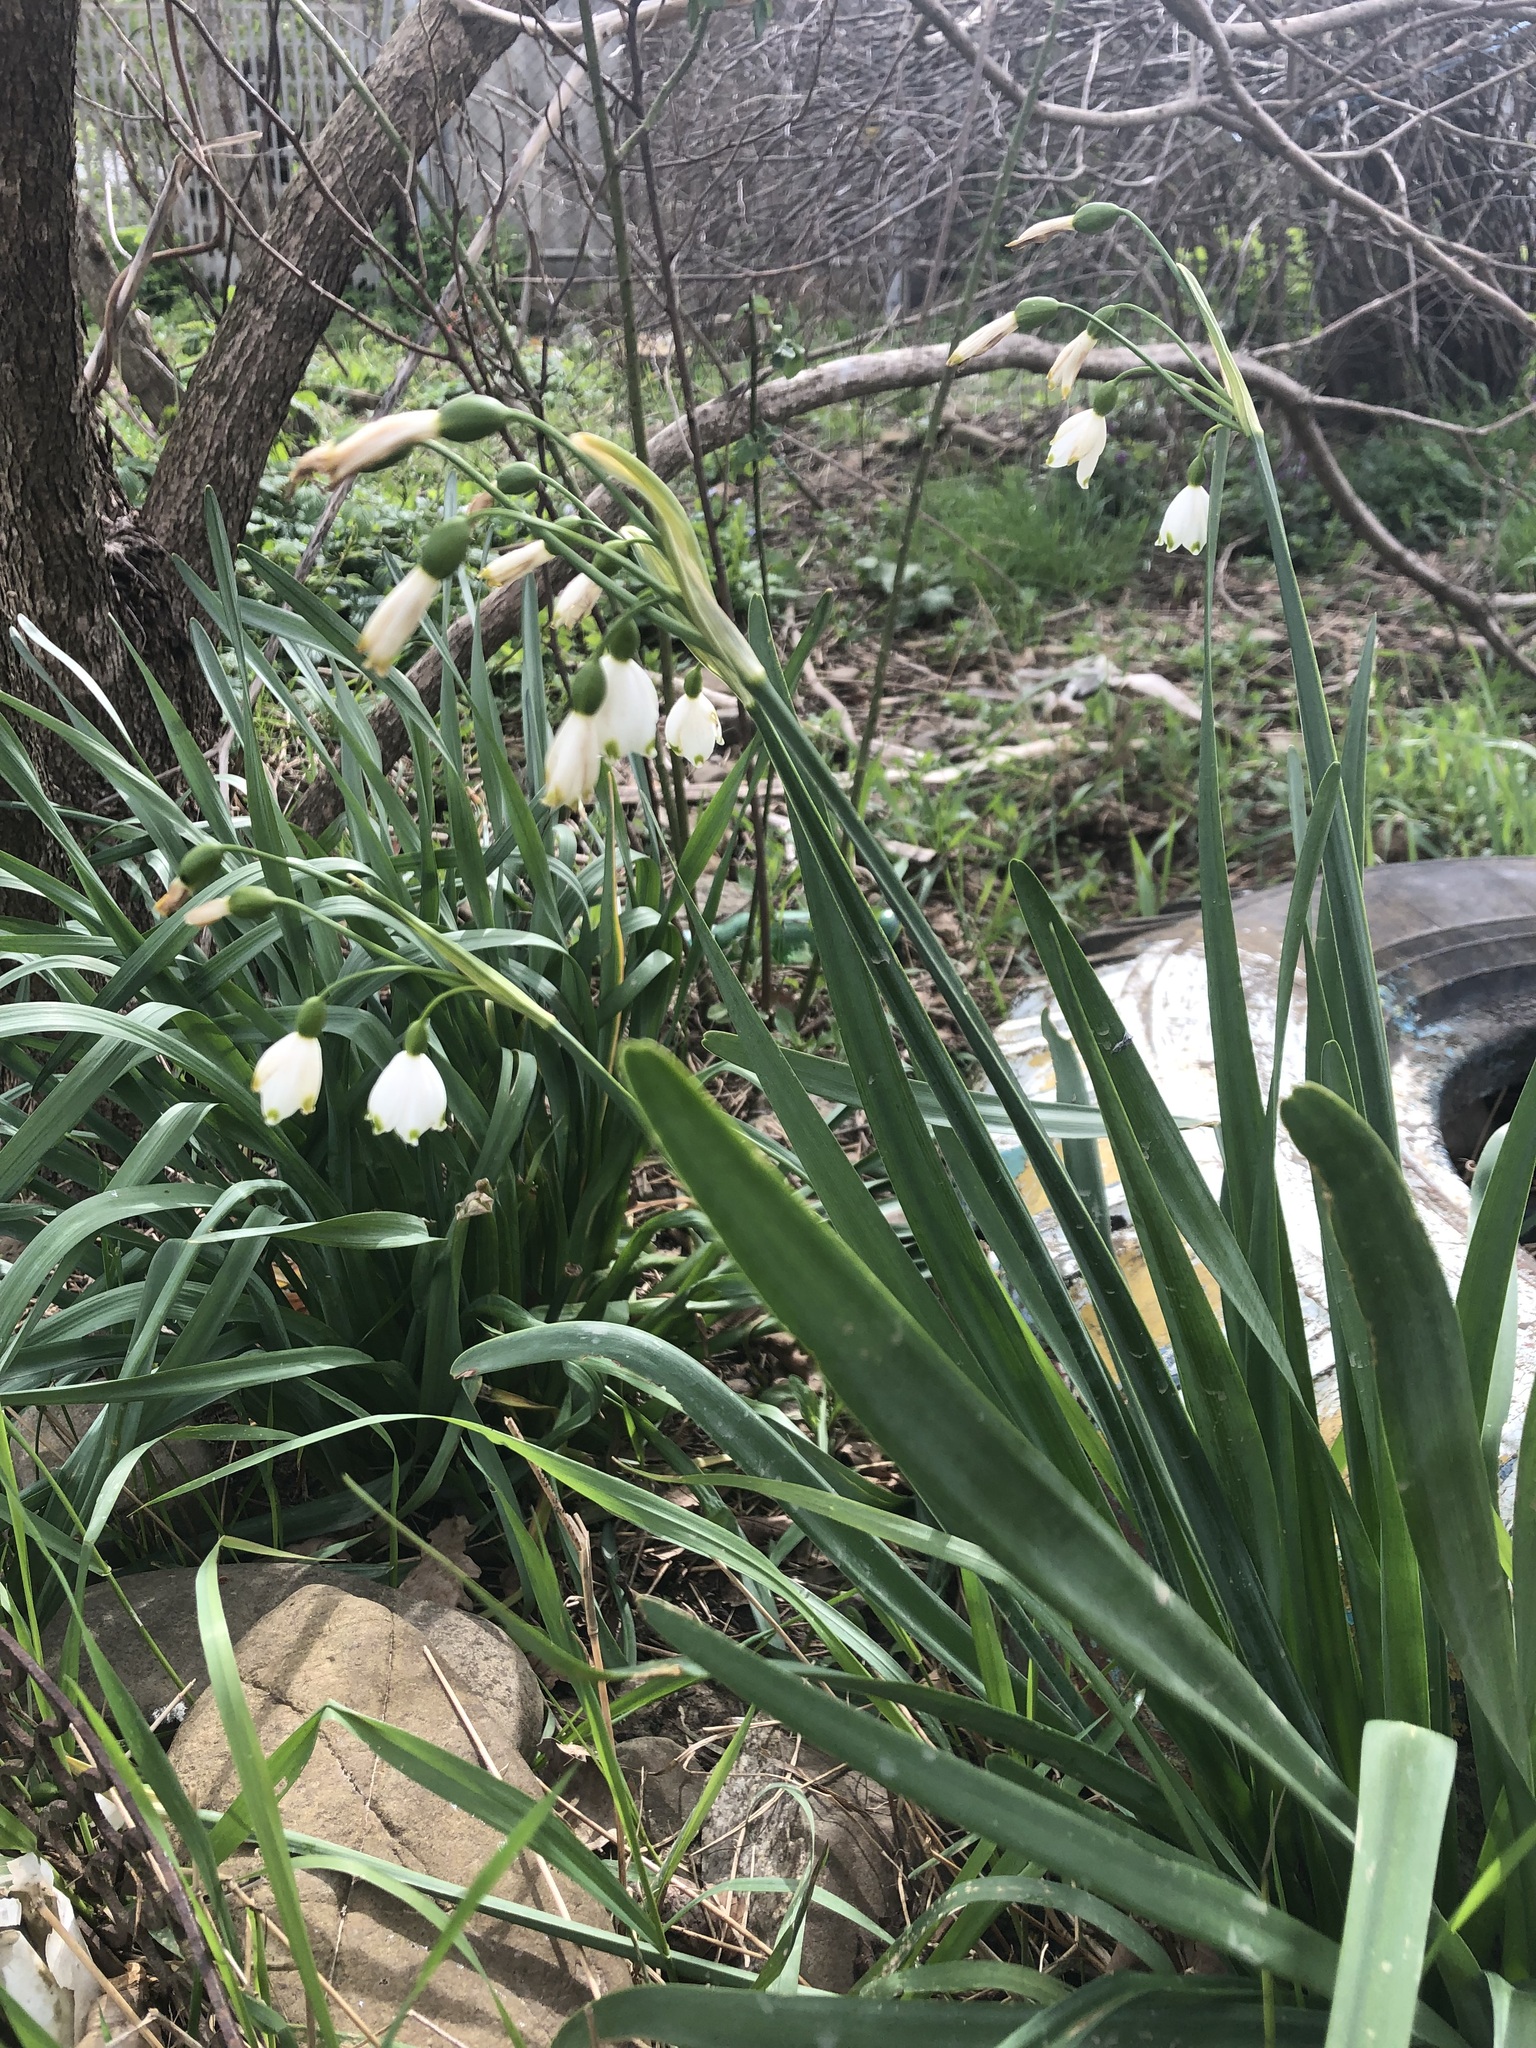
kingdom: Plantae
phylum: Tracheophyta
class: Liliopsida
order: Asparagales
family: Amaryllidaceae
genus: Leucojum
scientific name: Leucojum aestivum
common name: Summer snowflake
